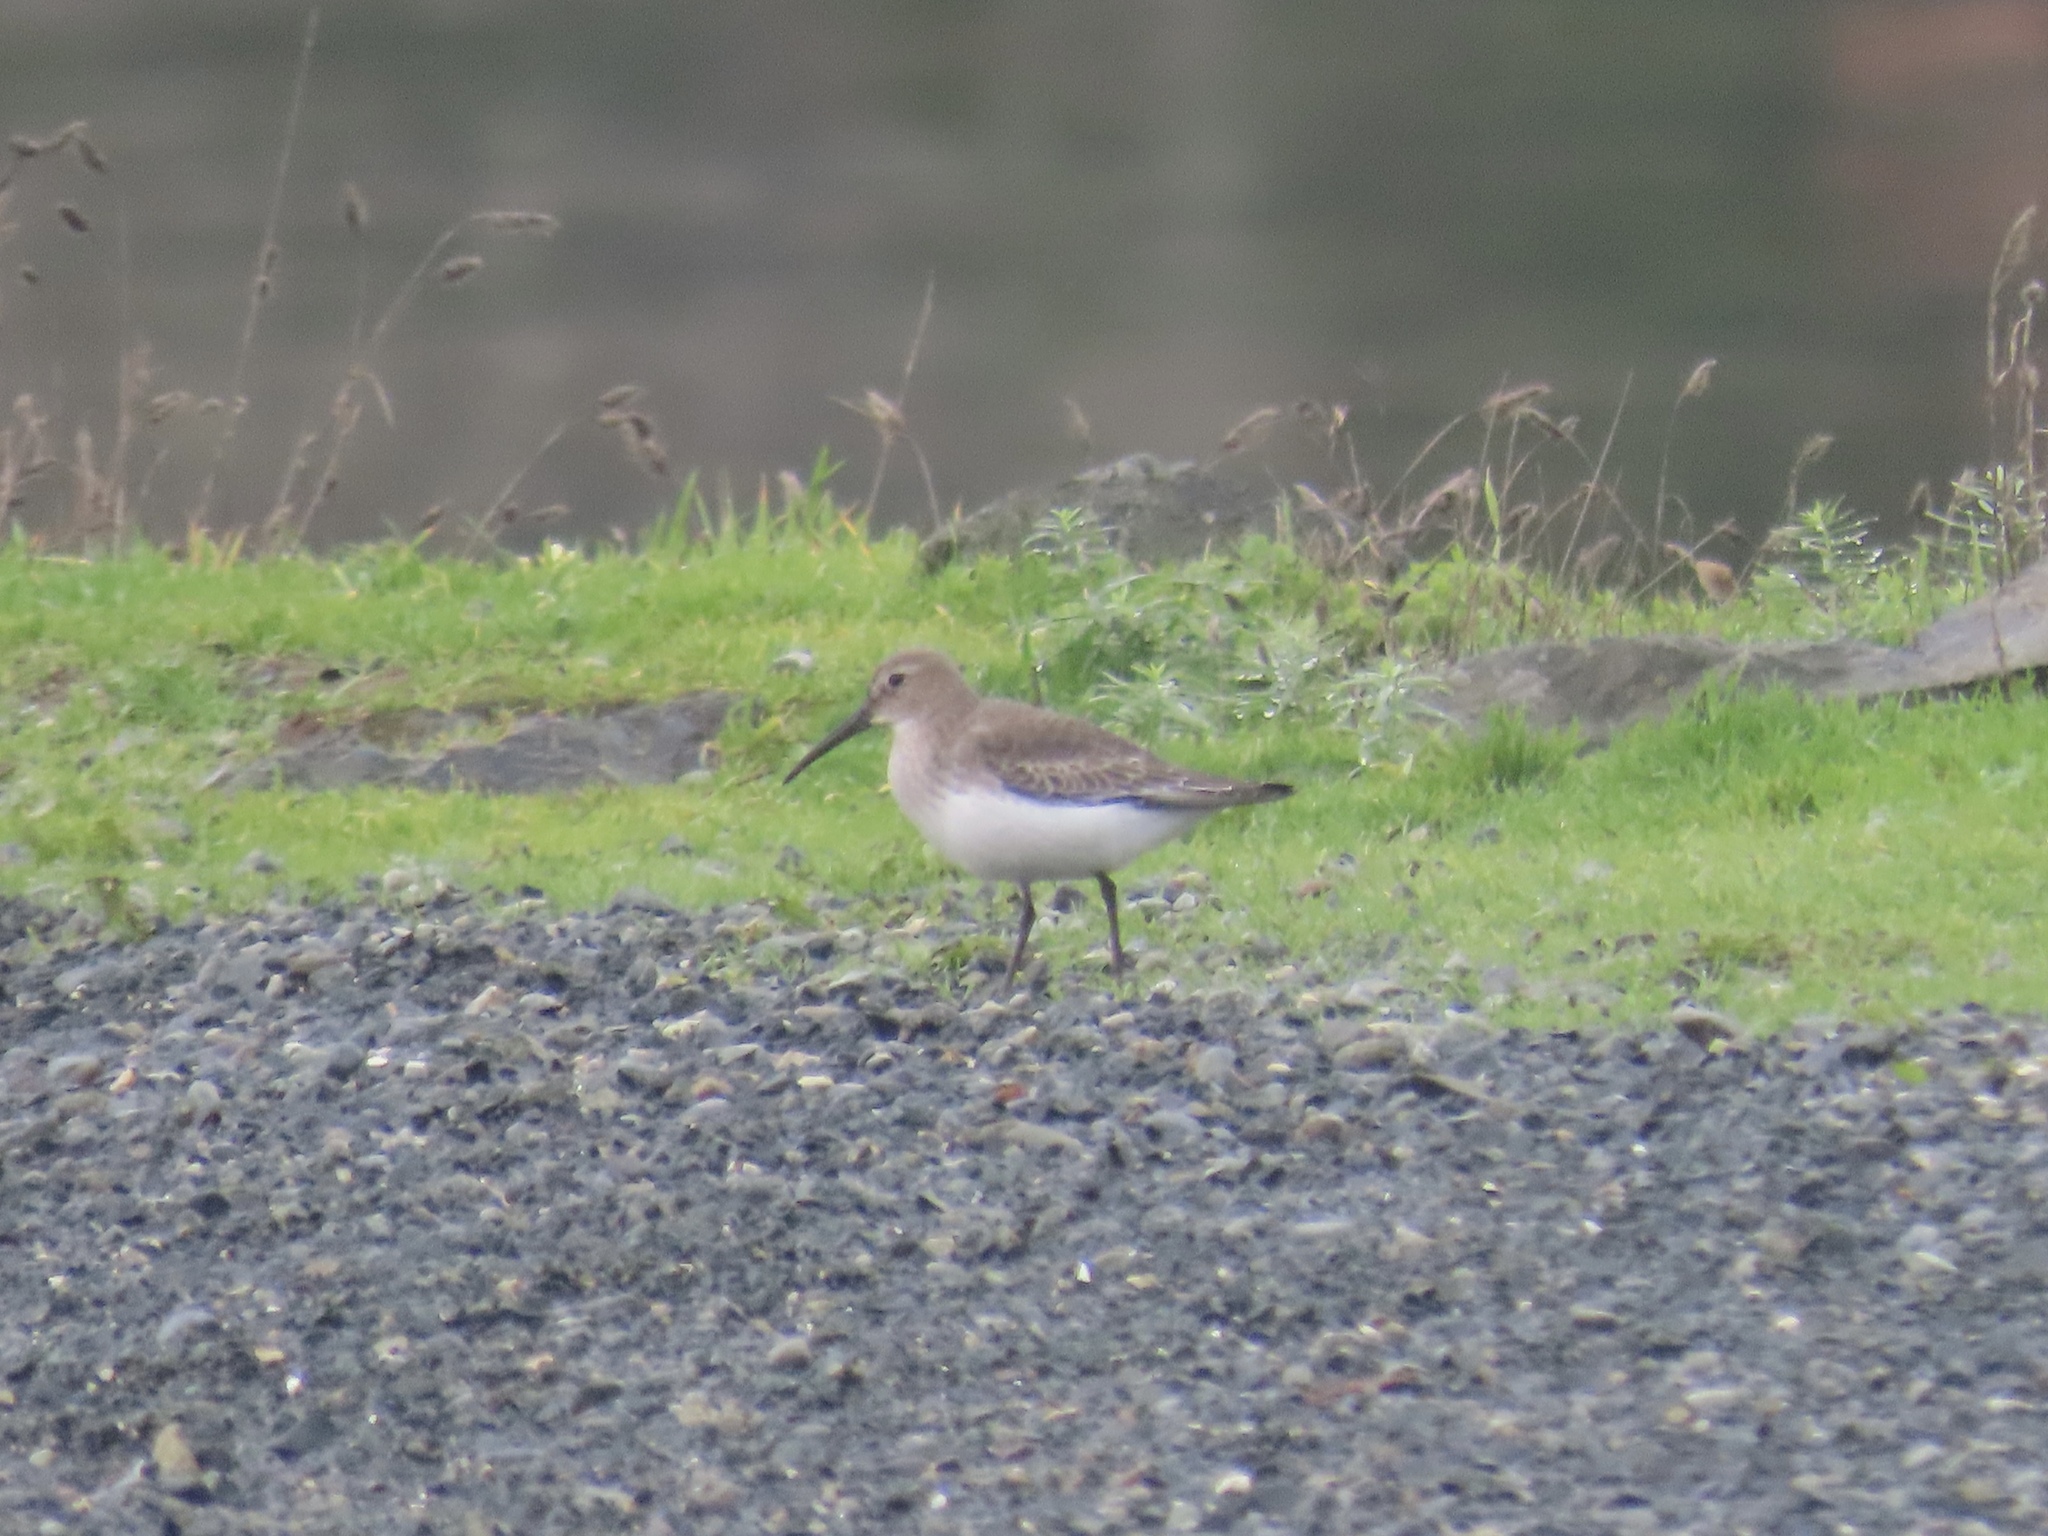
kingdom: Animalia
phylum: Chordata
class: Aves
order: Charadriiformes
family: Scolopacidae
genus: Calidris
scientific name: Calidris alpina
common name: Dunlin
